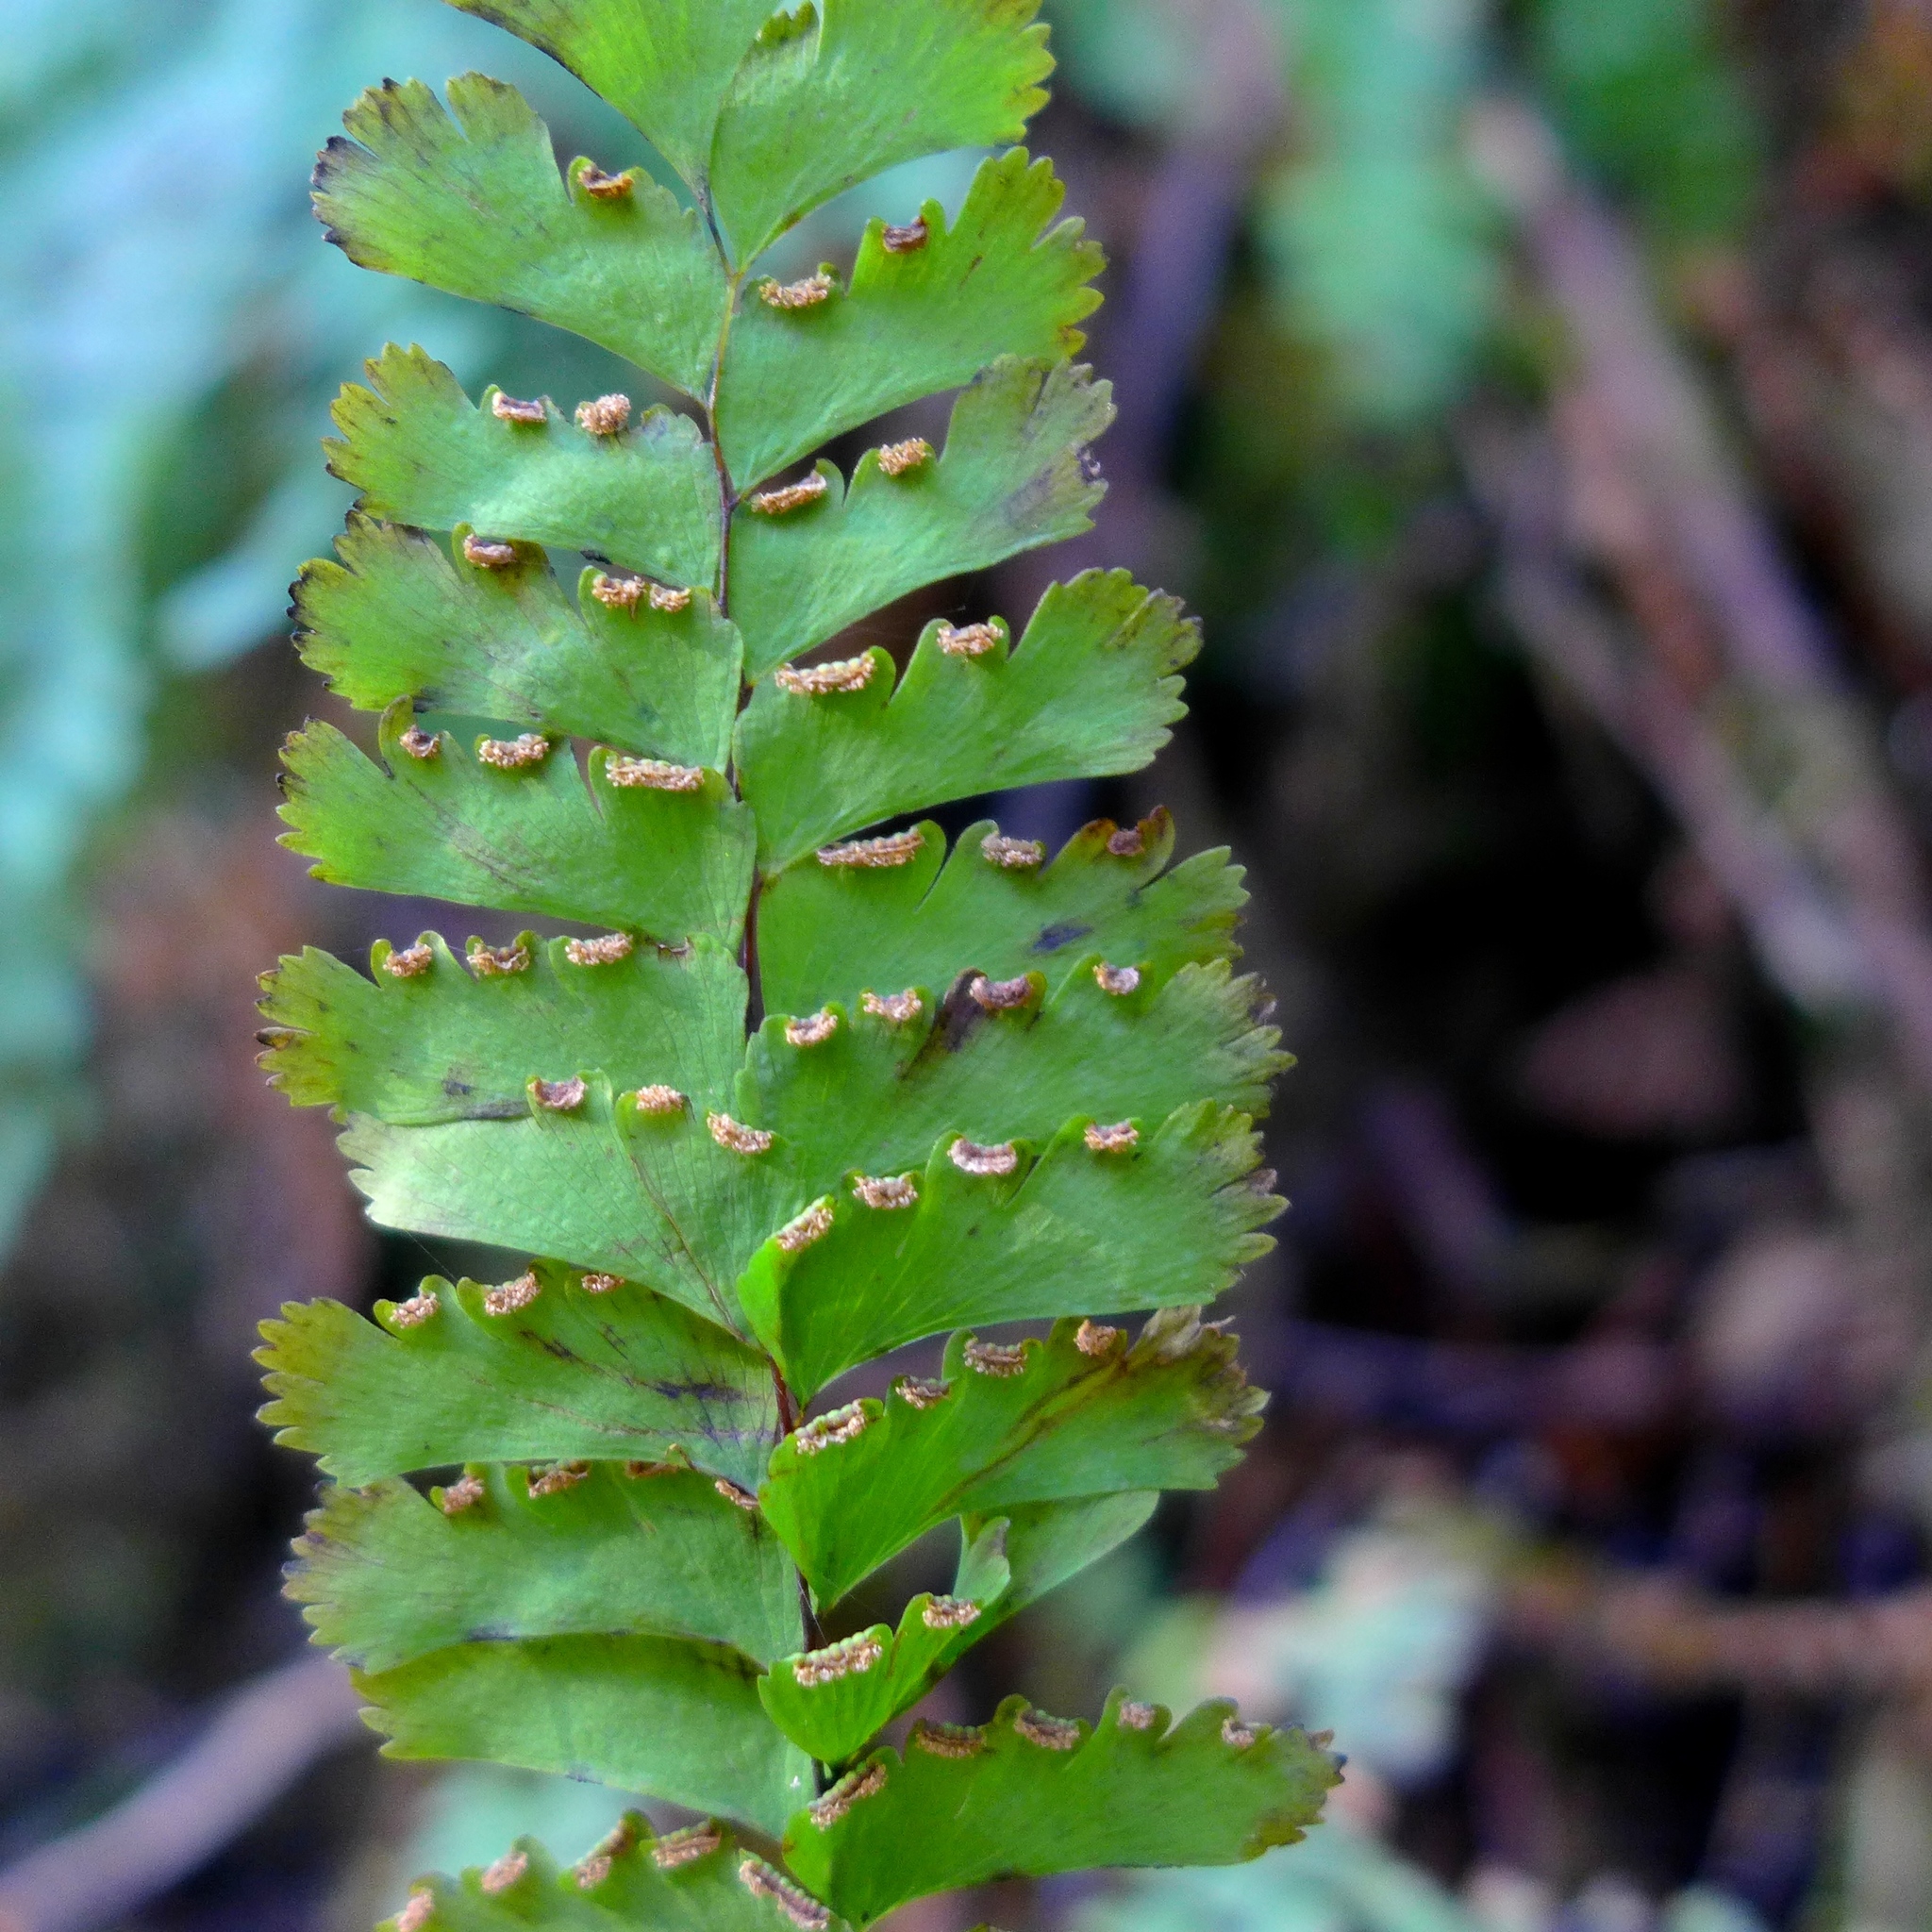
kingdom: Plantae
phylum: Tracheophyta
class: Polypodiopsida
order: Polypodiales
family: Pteridaceae
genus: Adiantum
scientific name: Adiantum aleuticum
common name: Aleutian maidenhair fern
